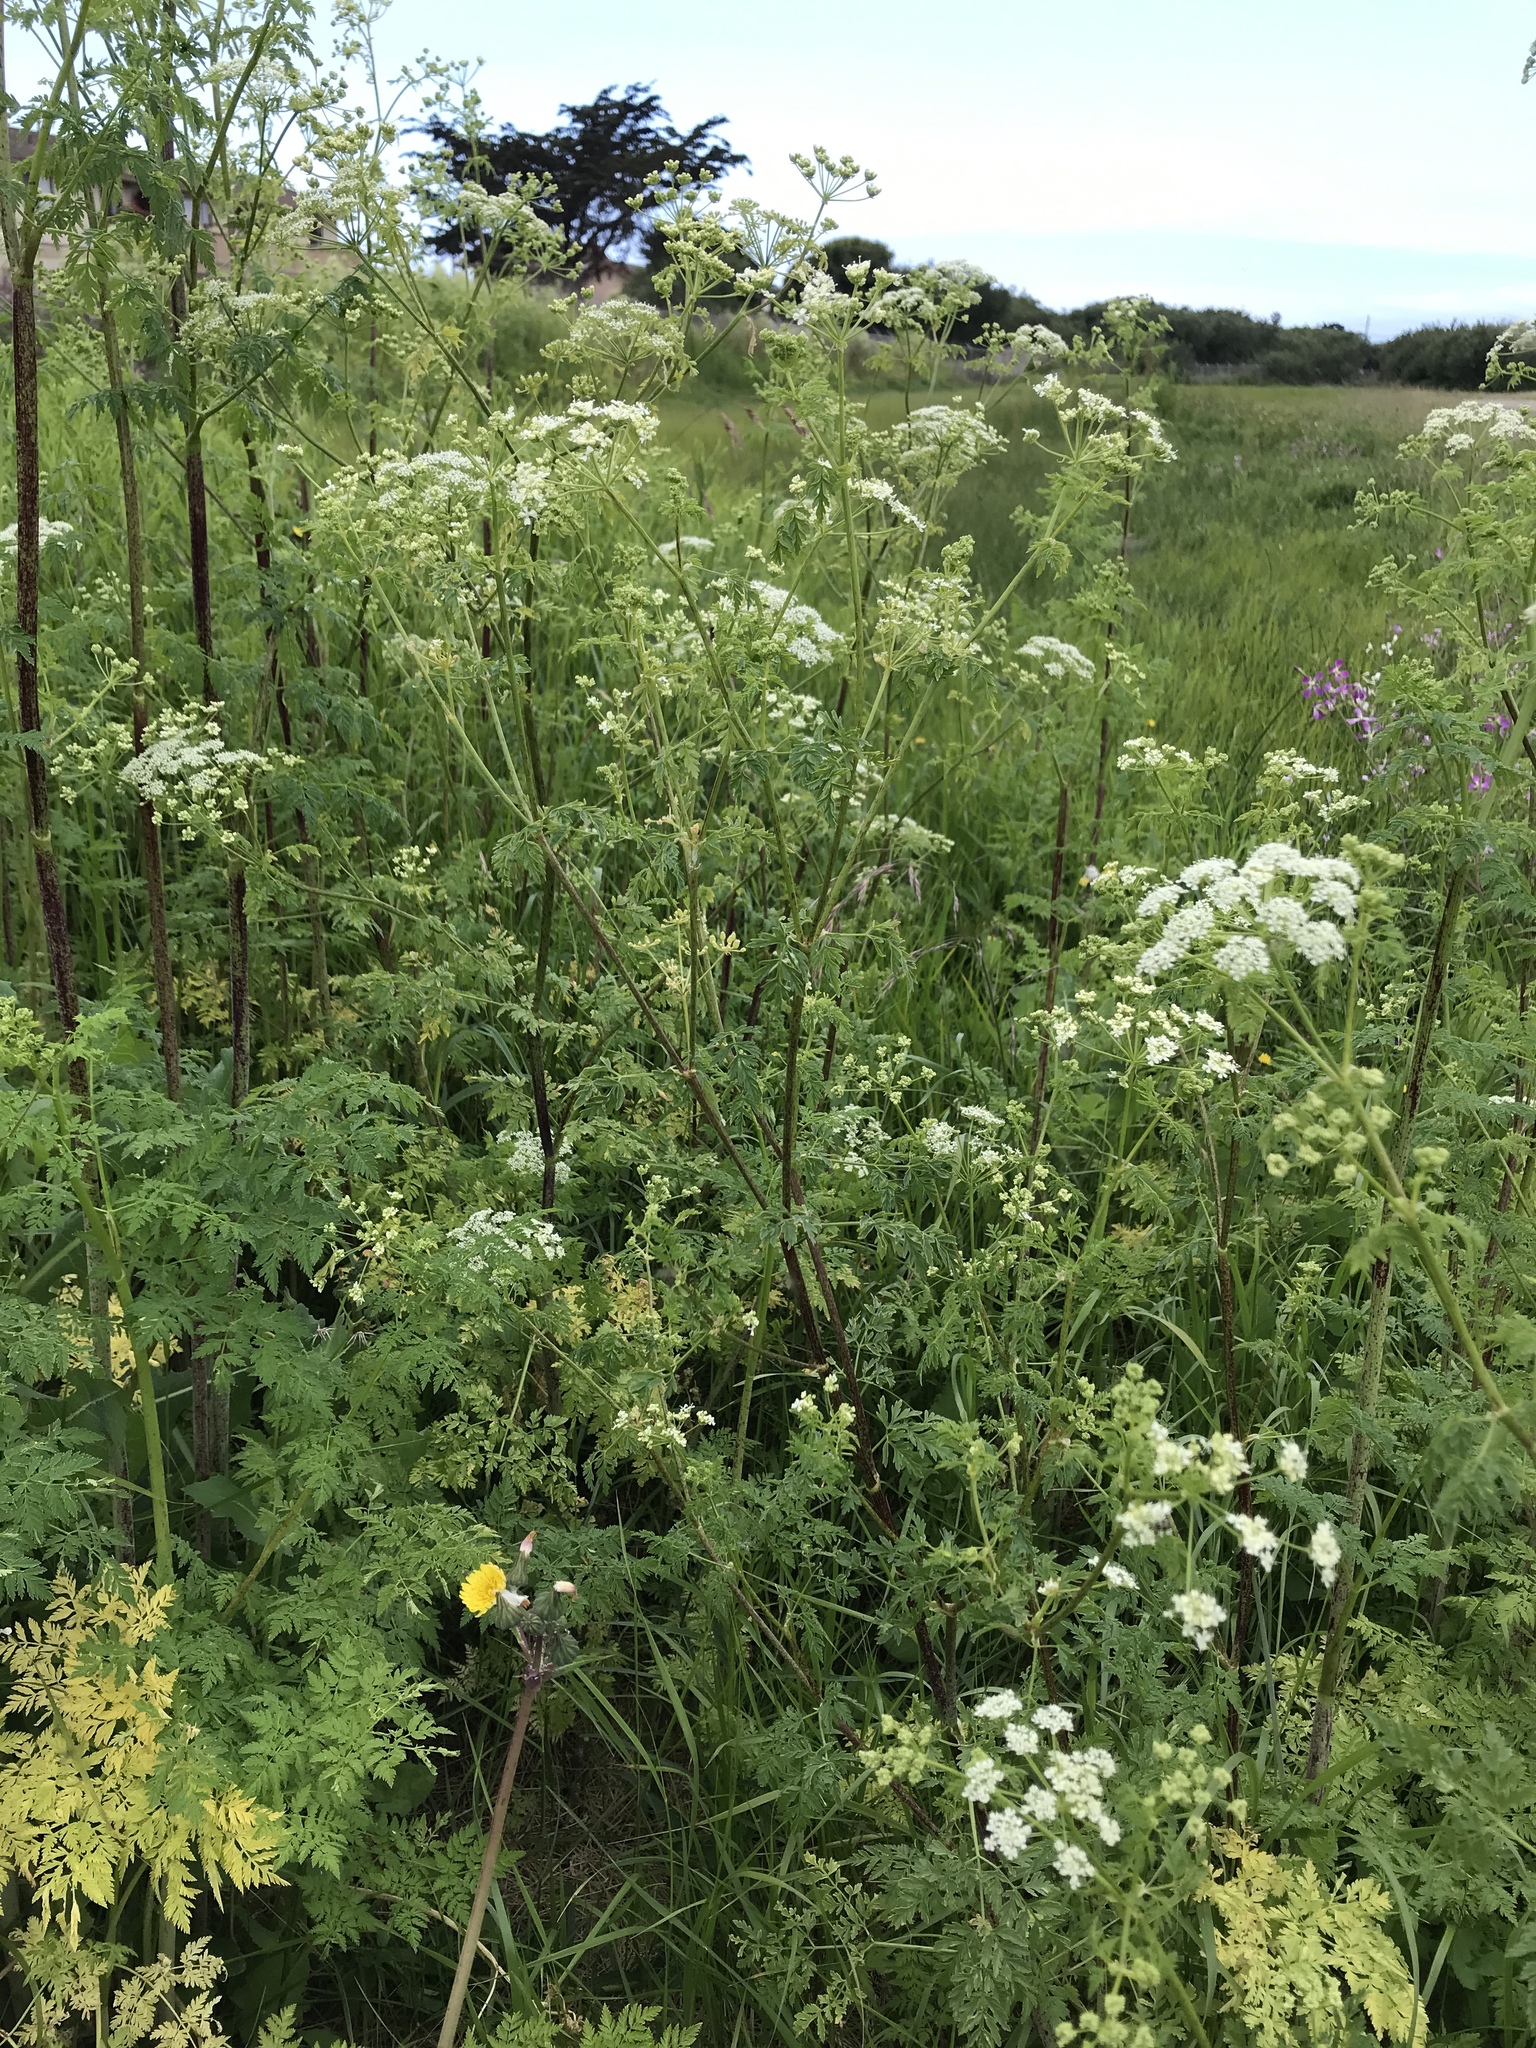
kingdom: Plantae
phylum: Tracheophyta
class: Magnoliopsida
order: Apiales
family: Apiaceae
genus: Conium
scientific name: Conium maculatum
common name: Hemlock
